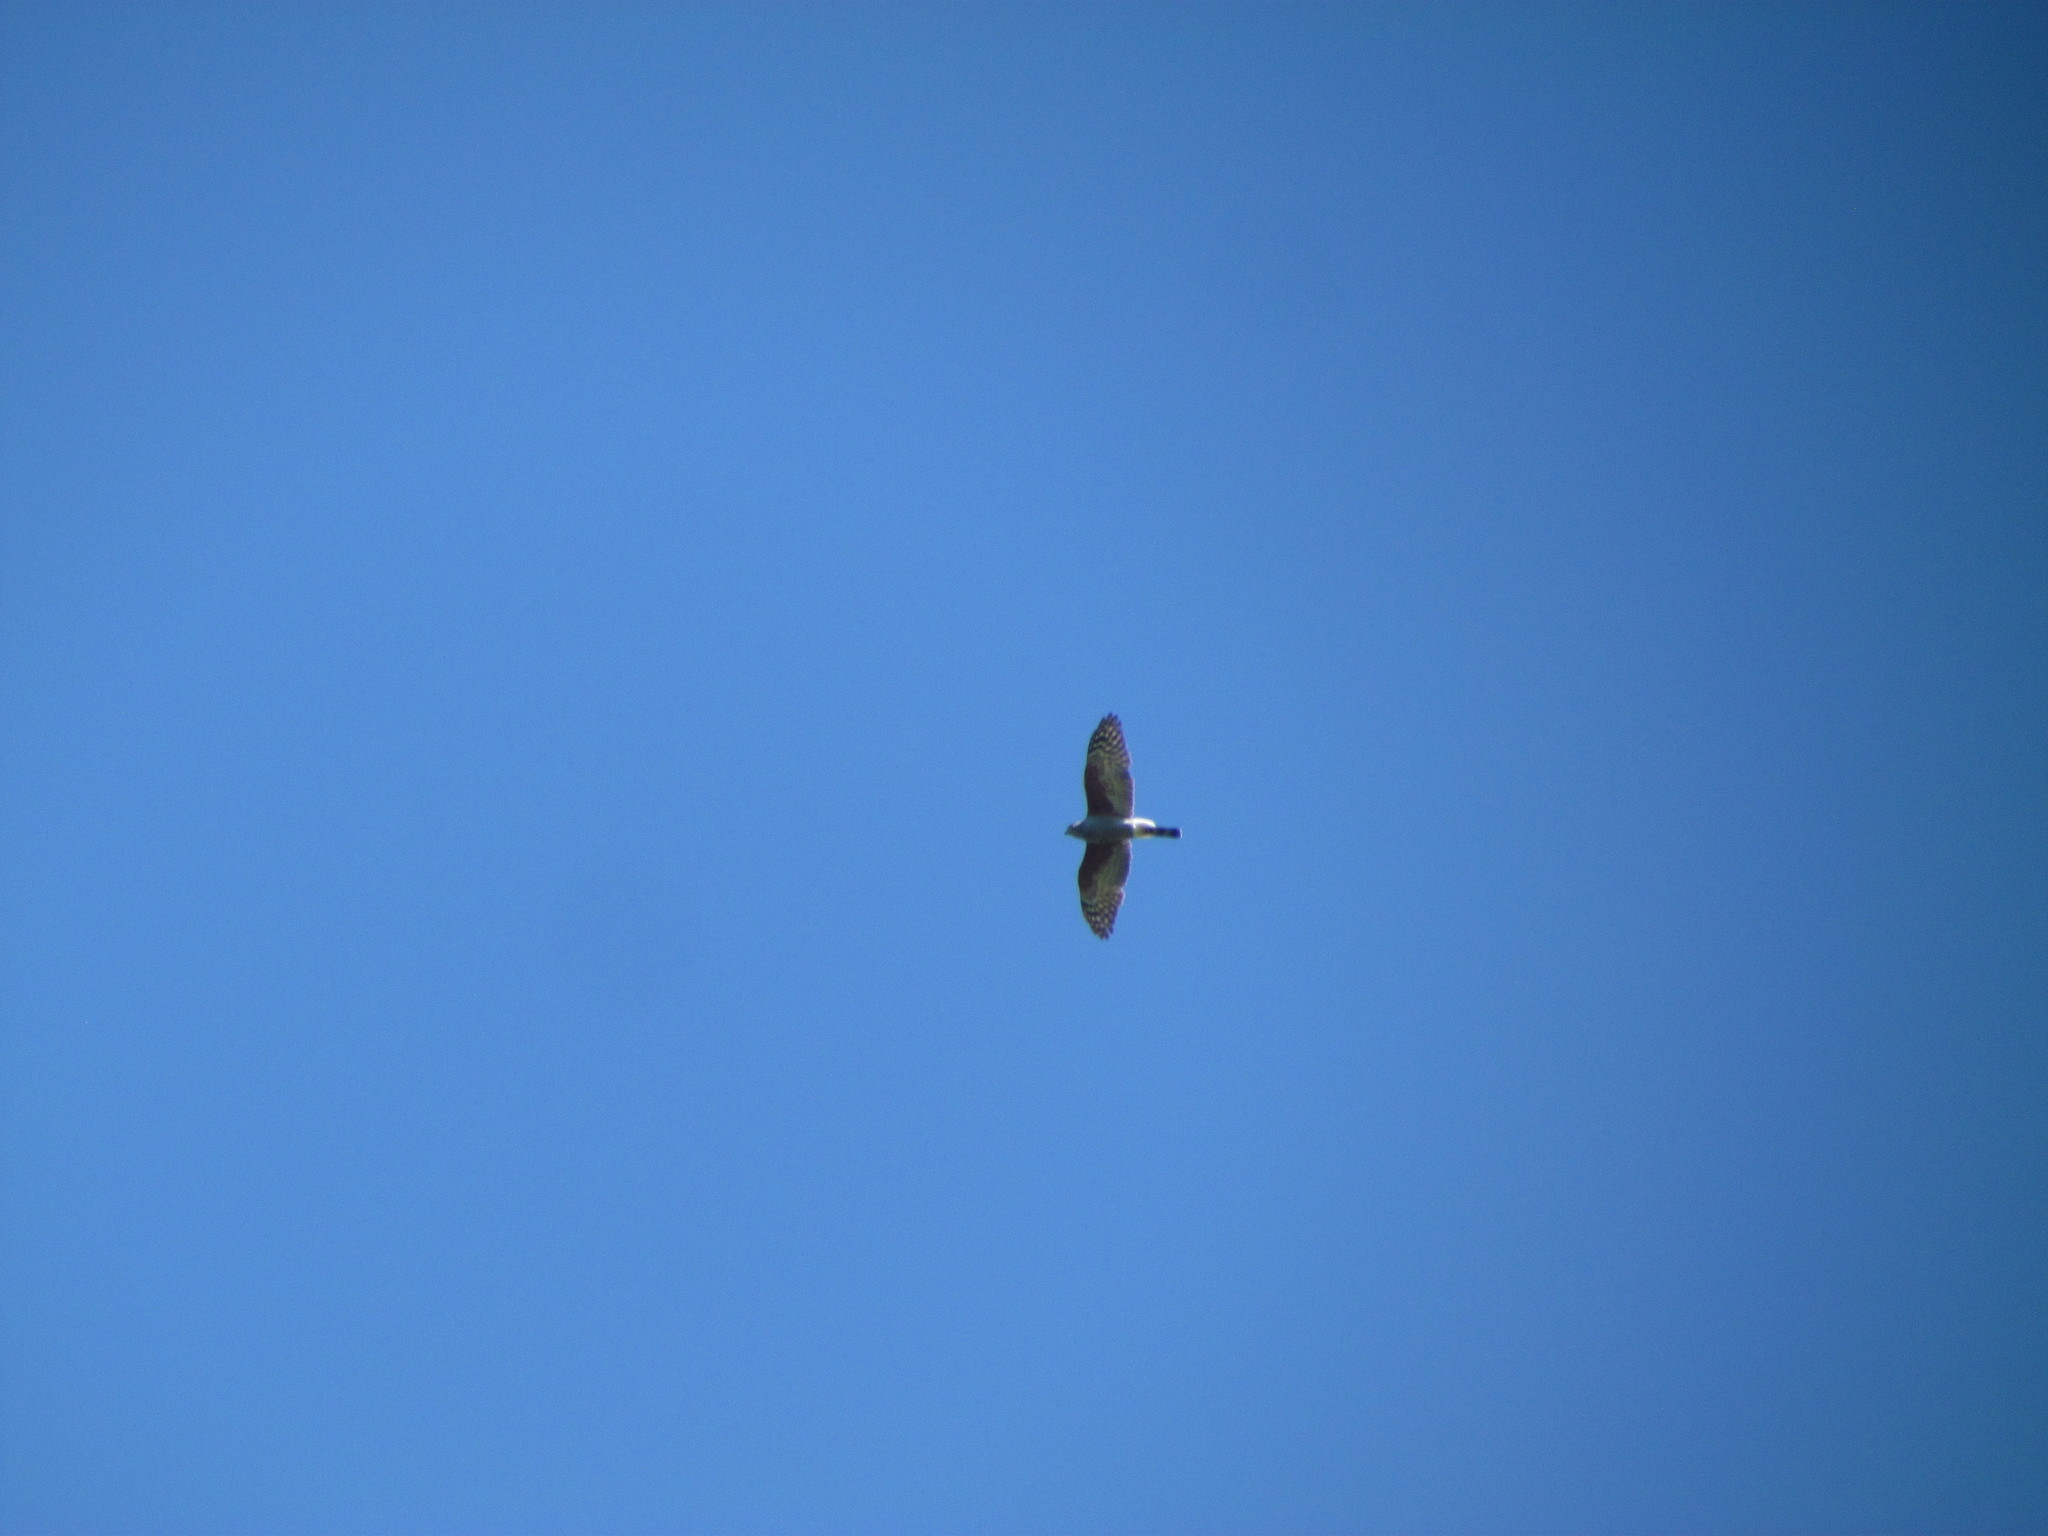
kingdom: Animalia
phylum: Chordata
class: Aves
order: Accipitriformes
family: Accipitridae
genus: Harpagus
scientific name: Harpagus diodon
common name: Rufous-thighed kite
